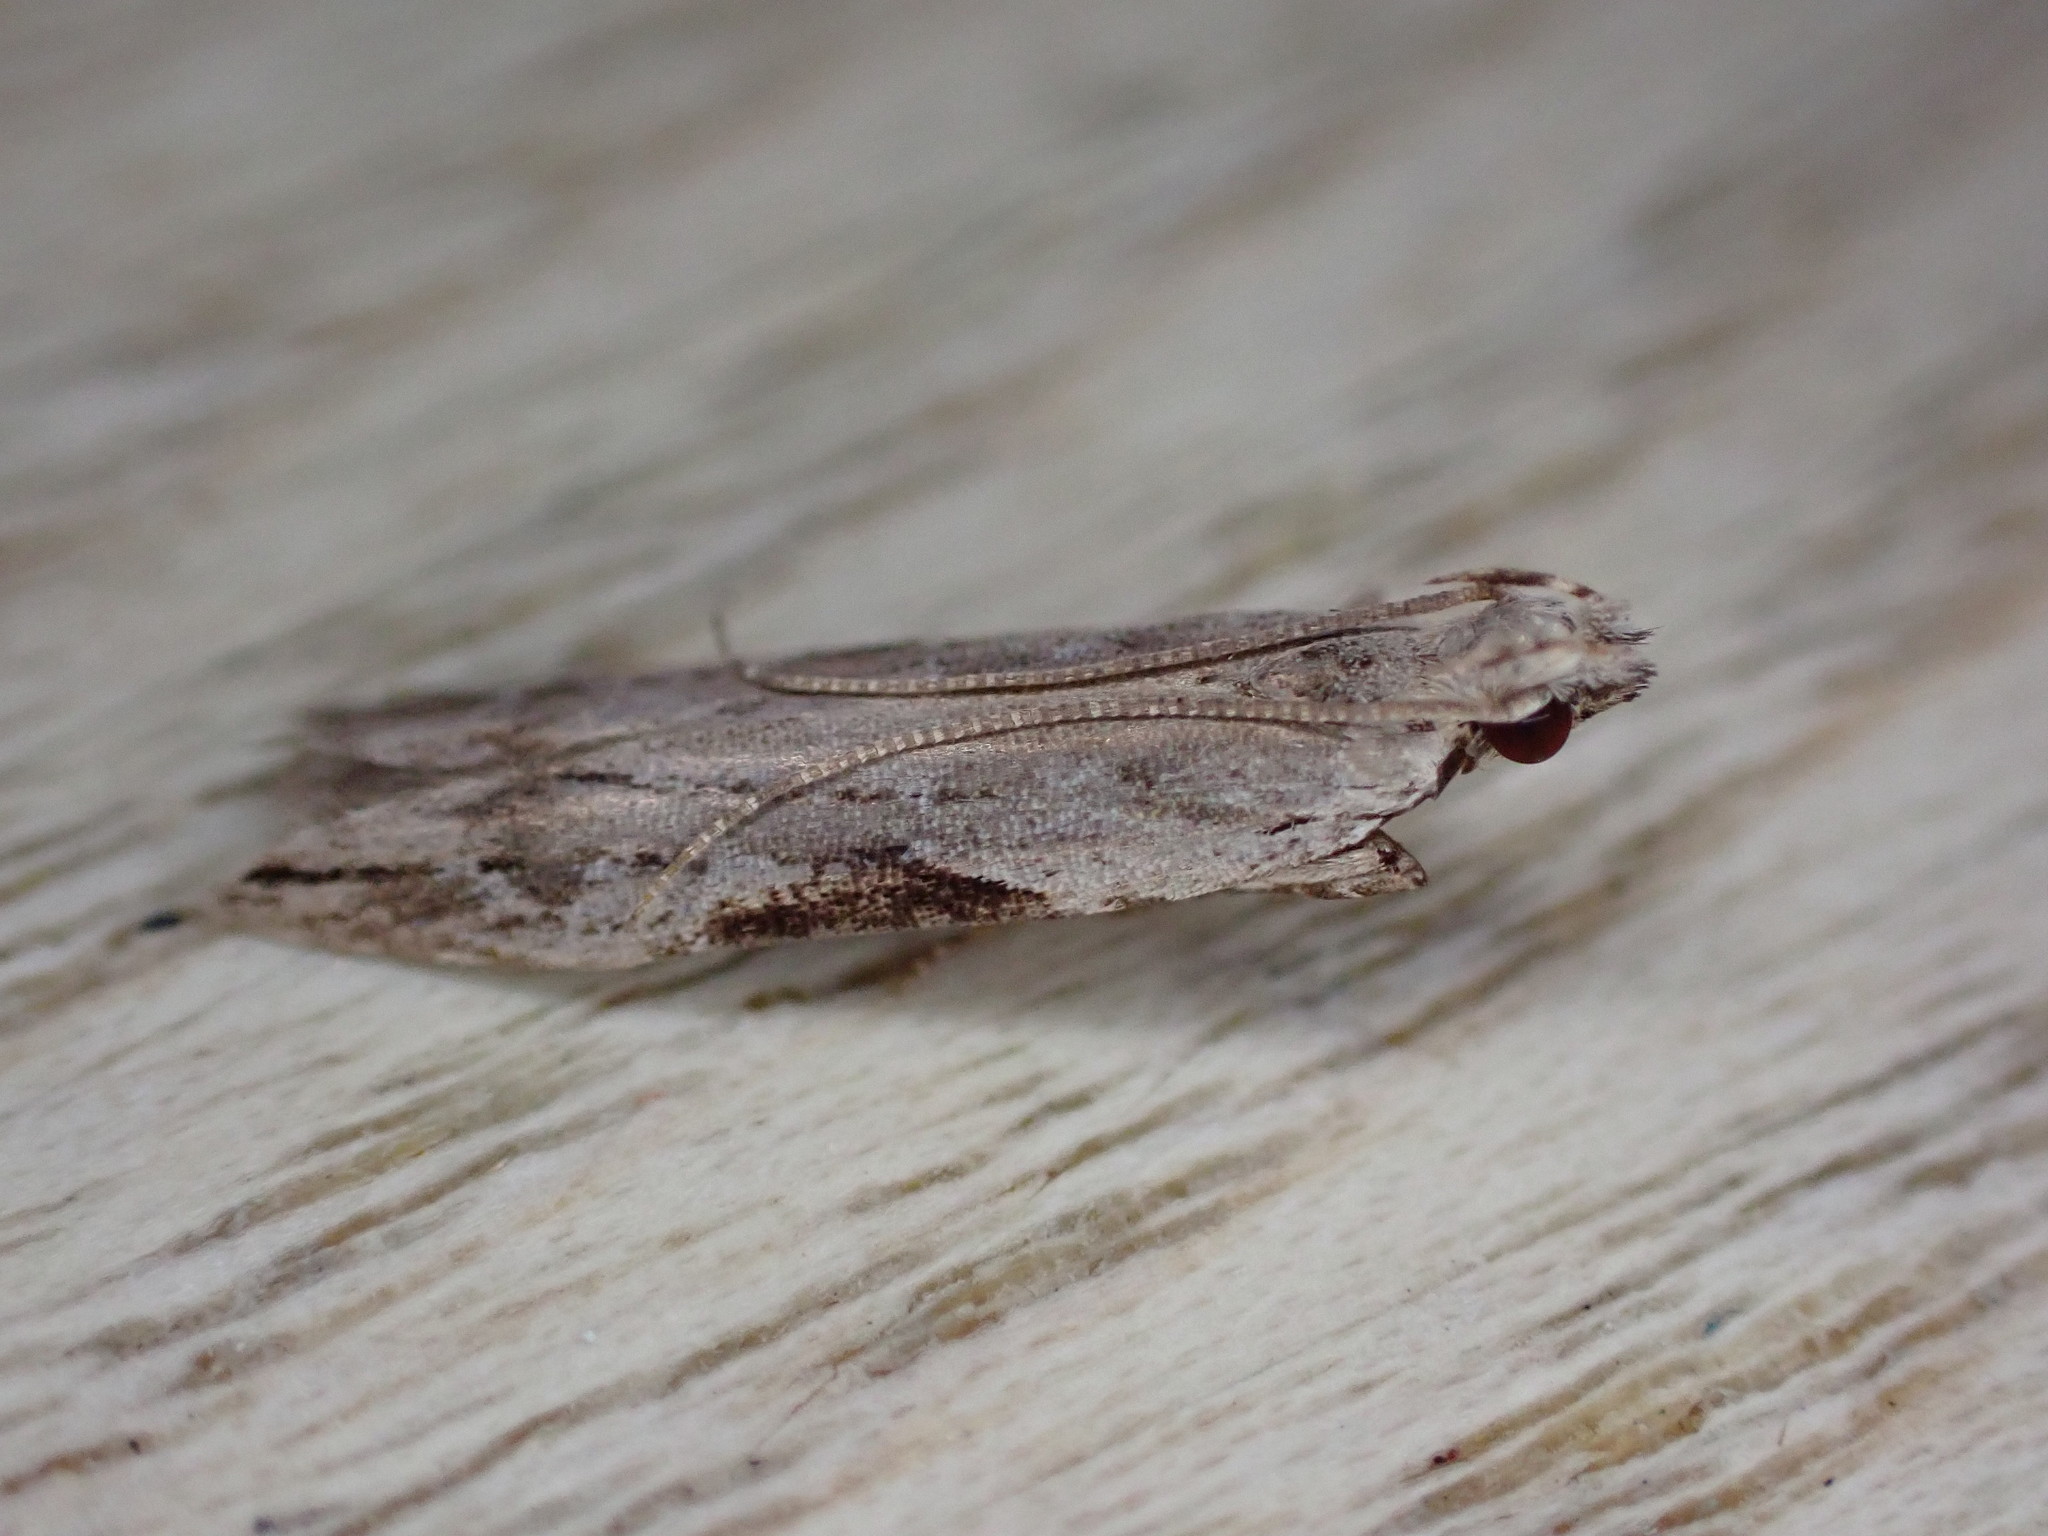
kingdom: Animalia
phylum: Arthropoda
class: Insecta
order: Lepidoptera
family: Gelechiidae
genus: Hypatima
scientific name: Hypatima rhomboidella
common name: Square-spot crest
